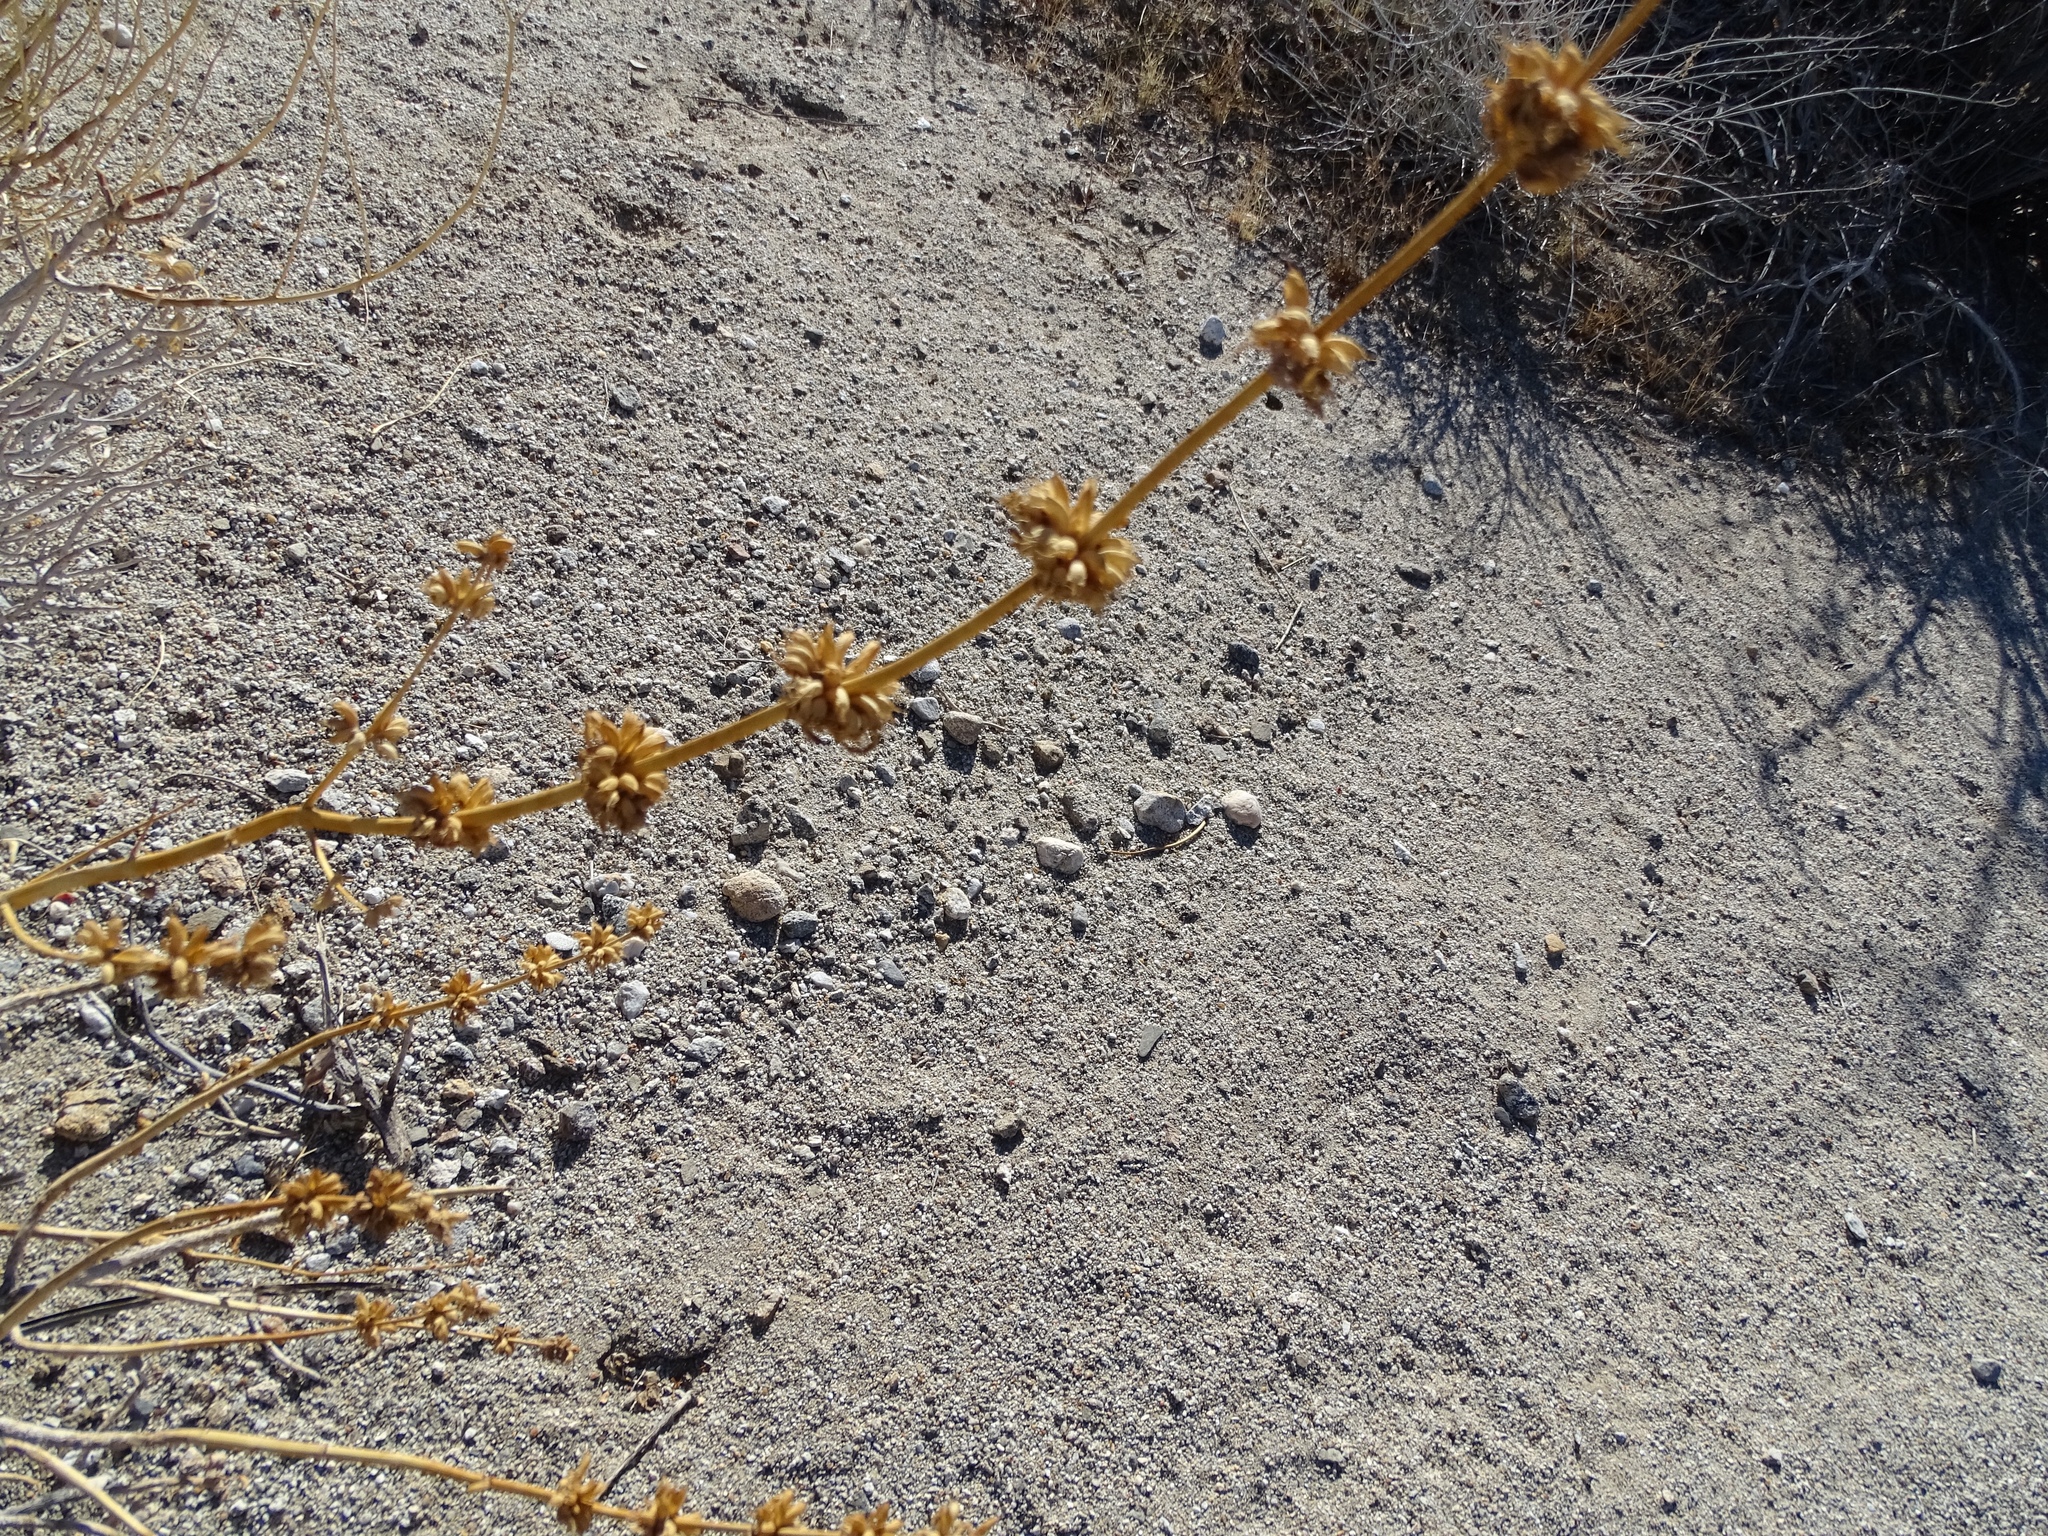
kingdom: Plantae
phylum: Tracheophyta
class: Magnoliopsida
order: Lamiales
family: Lamiaceae
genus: Salvia
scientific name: Salvia vaseyi
